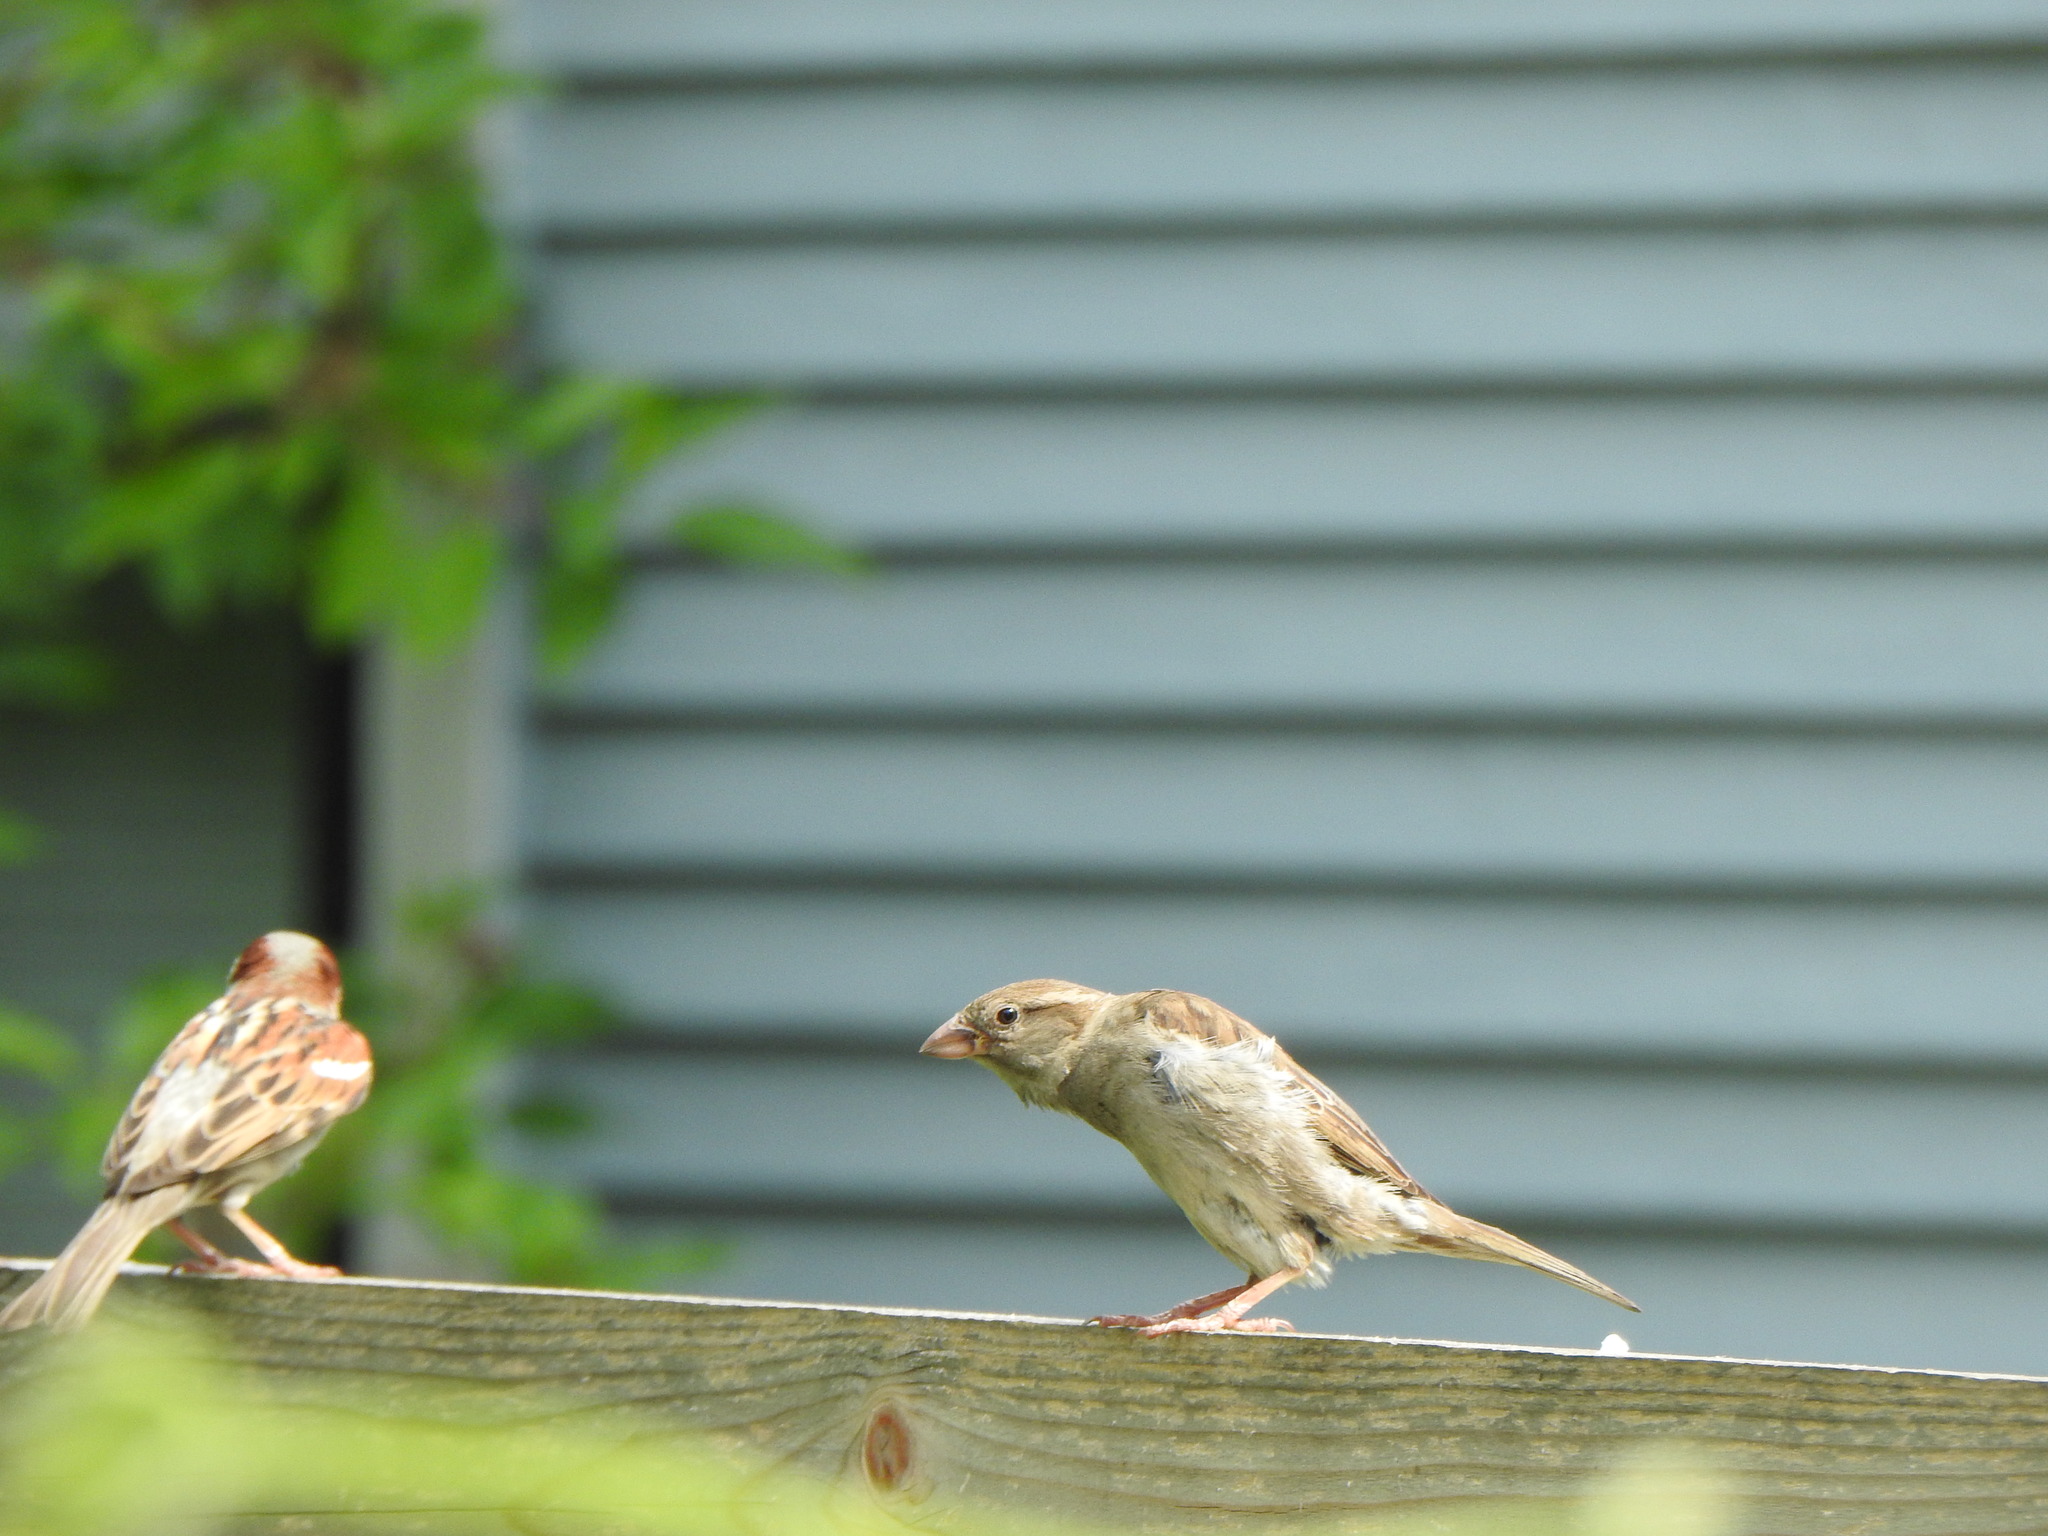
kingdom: Animalia
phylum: Chordata
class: Aves
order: Passeriformes
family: Passeridae
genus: Passer
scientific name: Passer domesticus
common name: House sparrow
